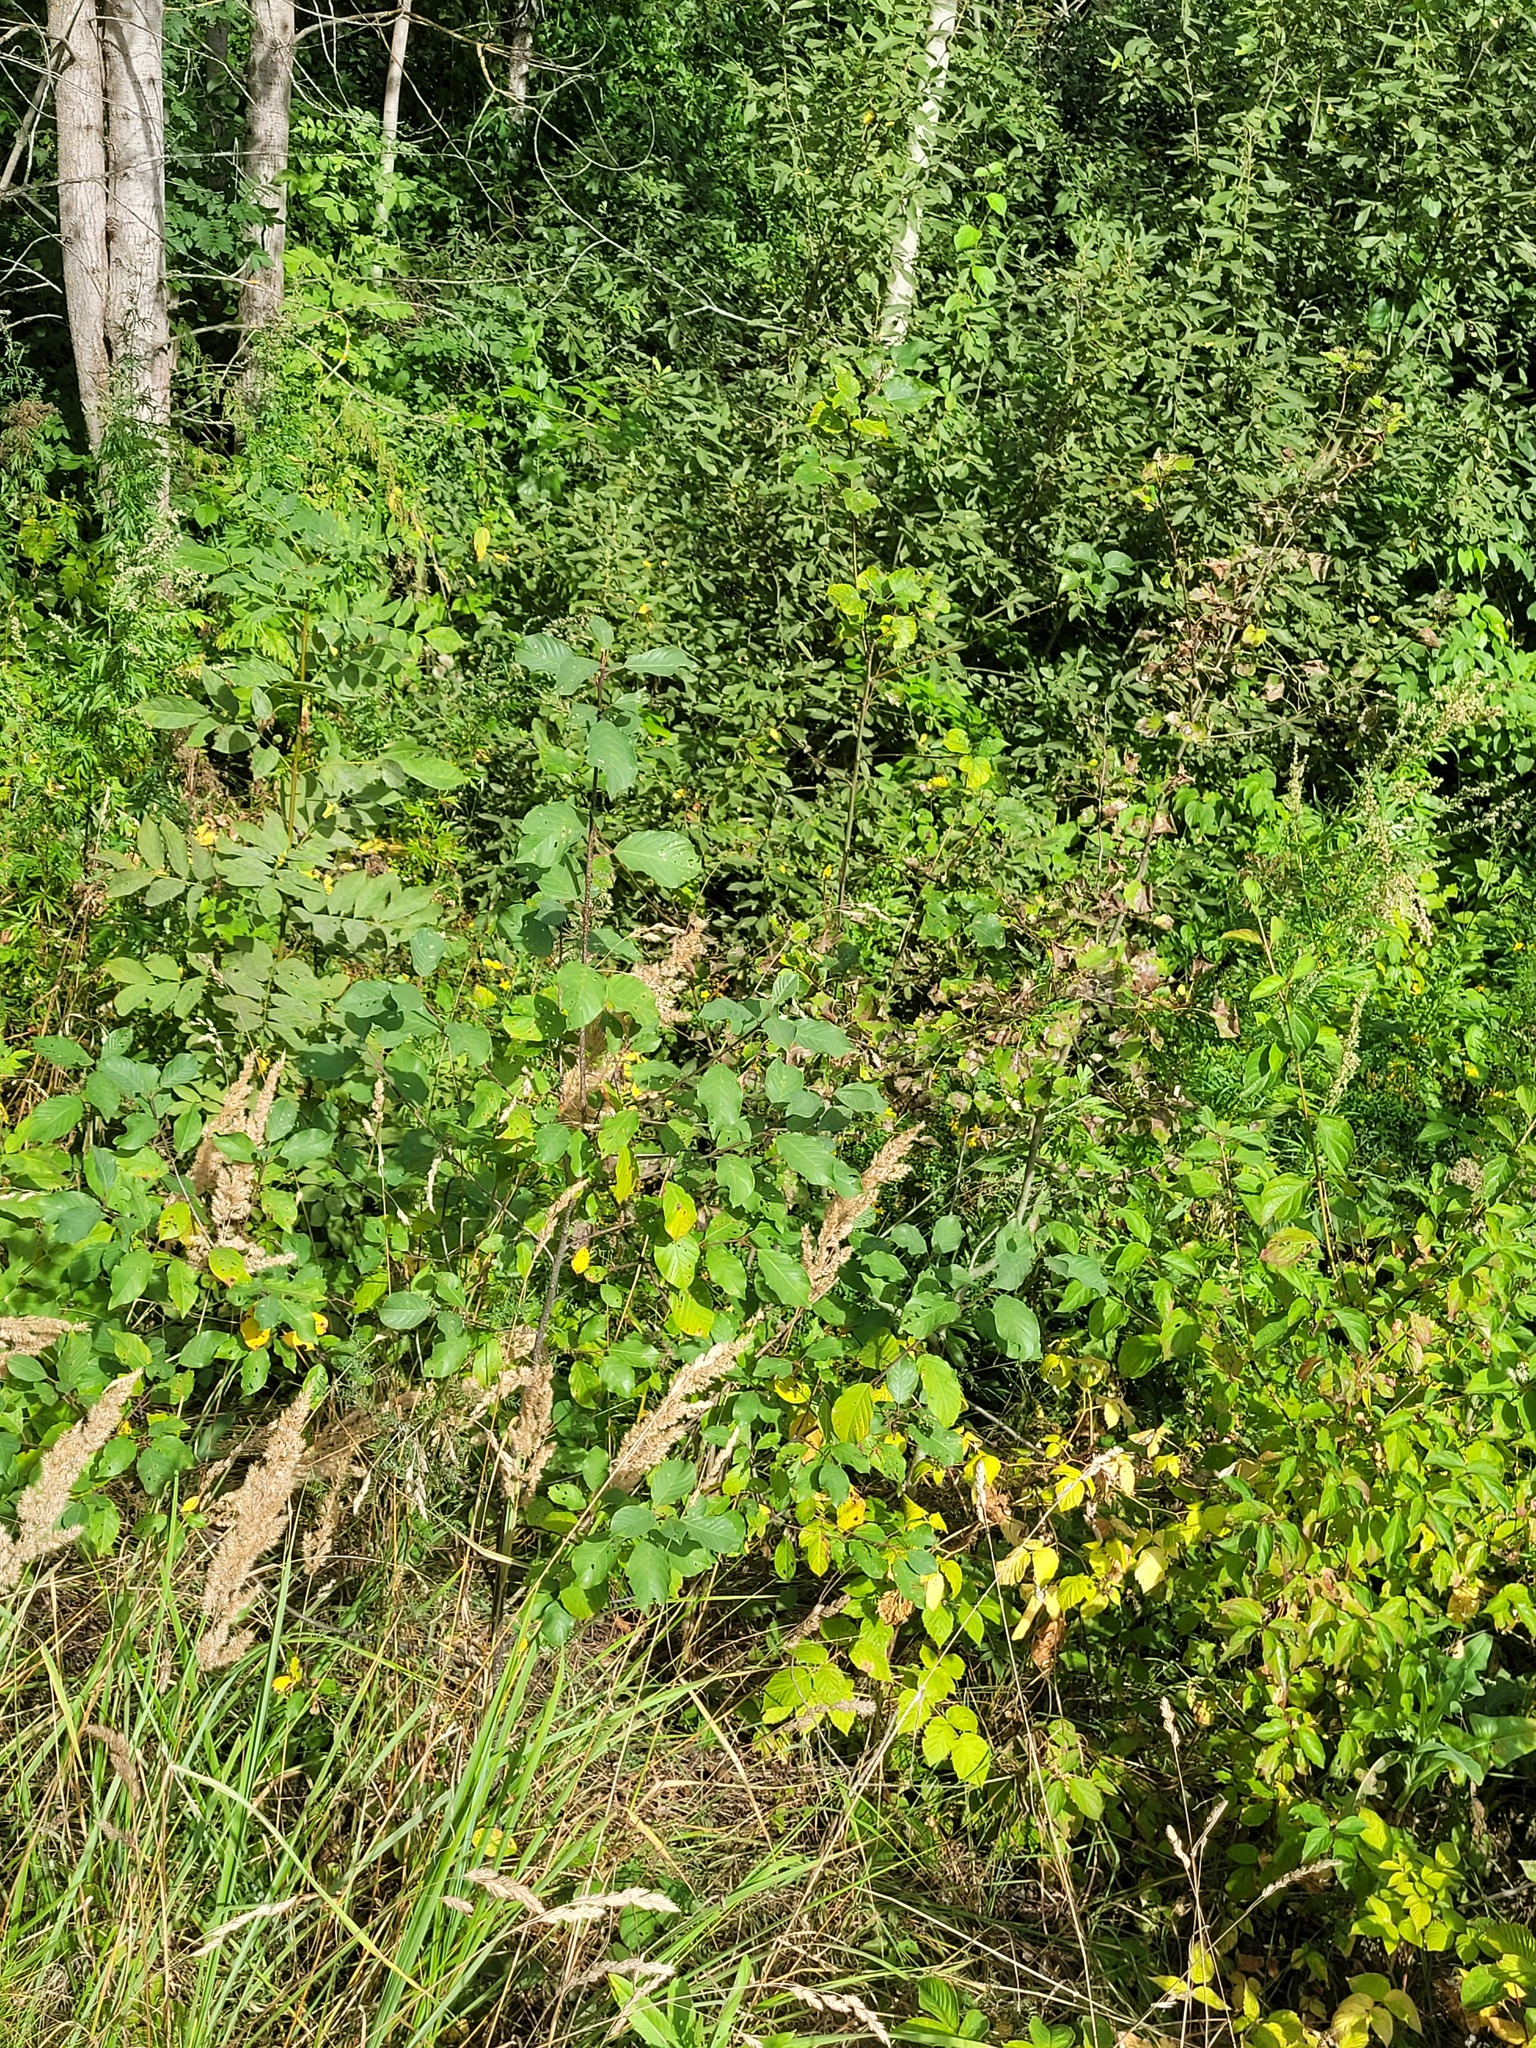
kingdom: Plantae
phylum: Tracheophyta
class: Magnoliopsida
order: Rosales
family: Rhamnaceae
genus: Frangula
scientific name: Frangula alnus
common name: Alder buckthorn
